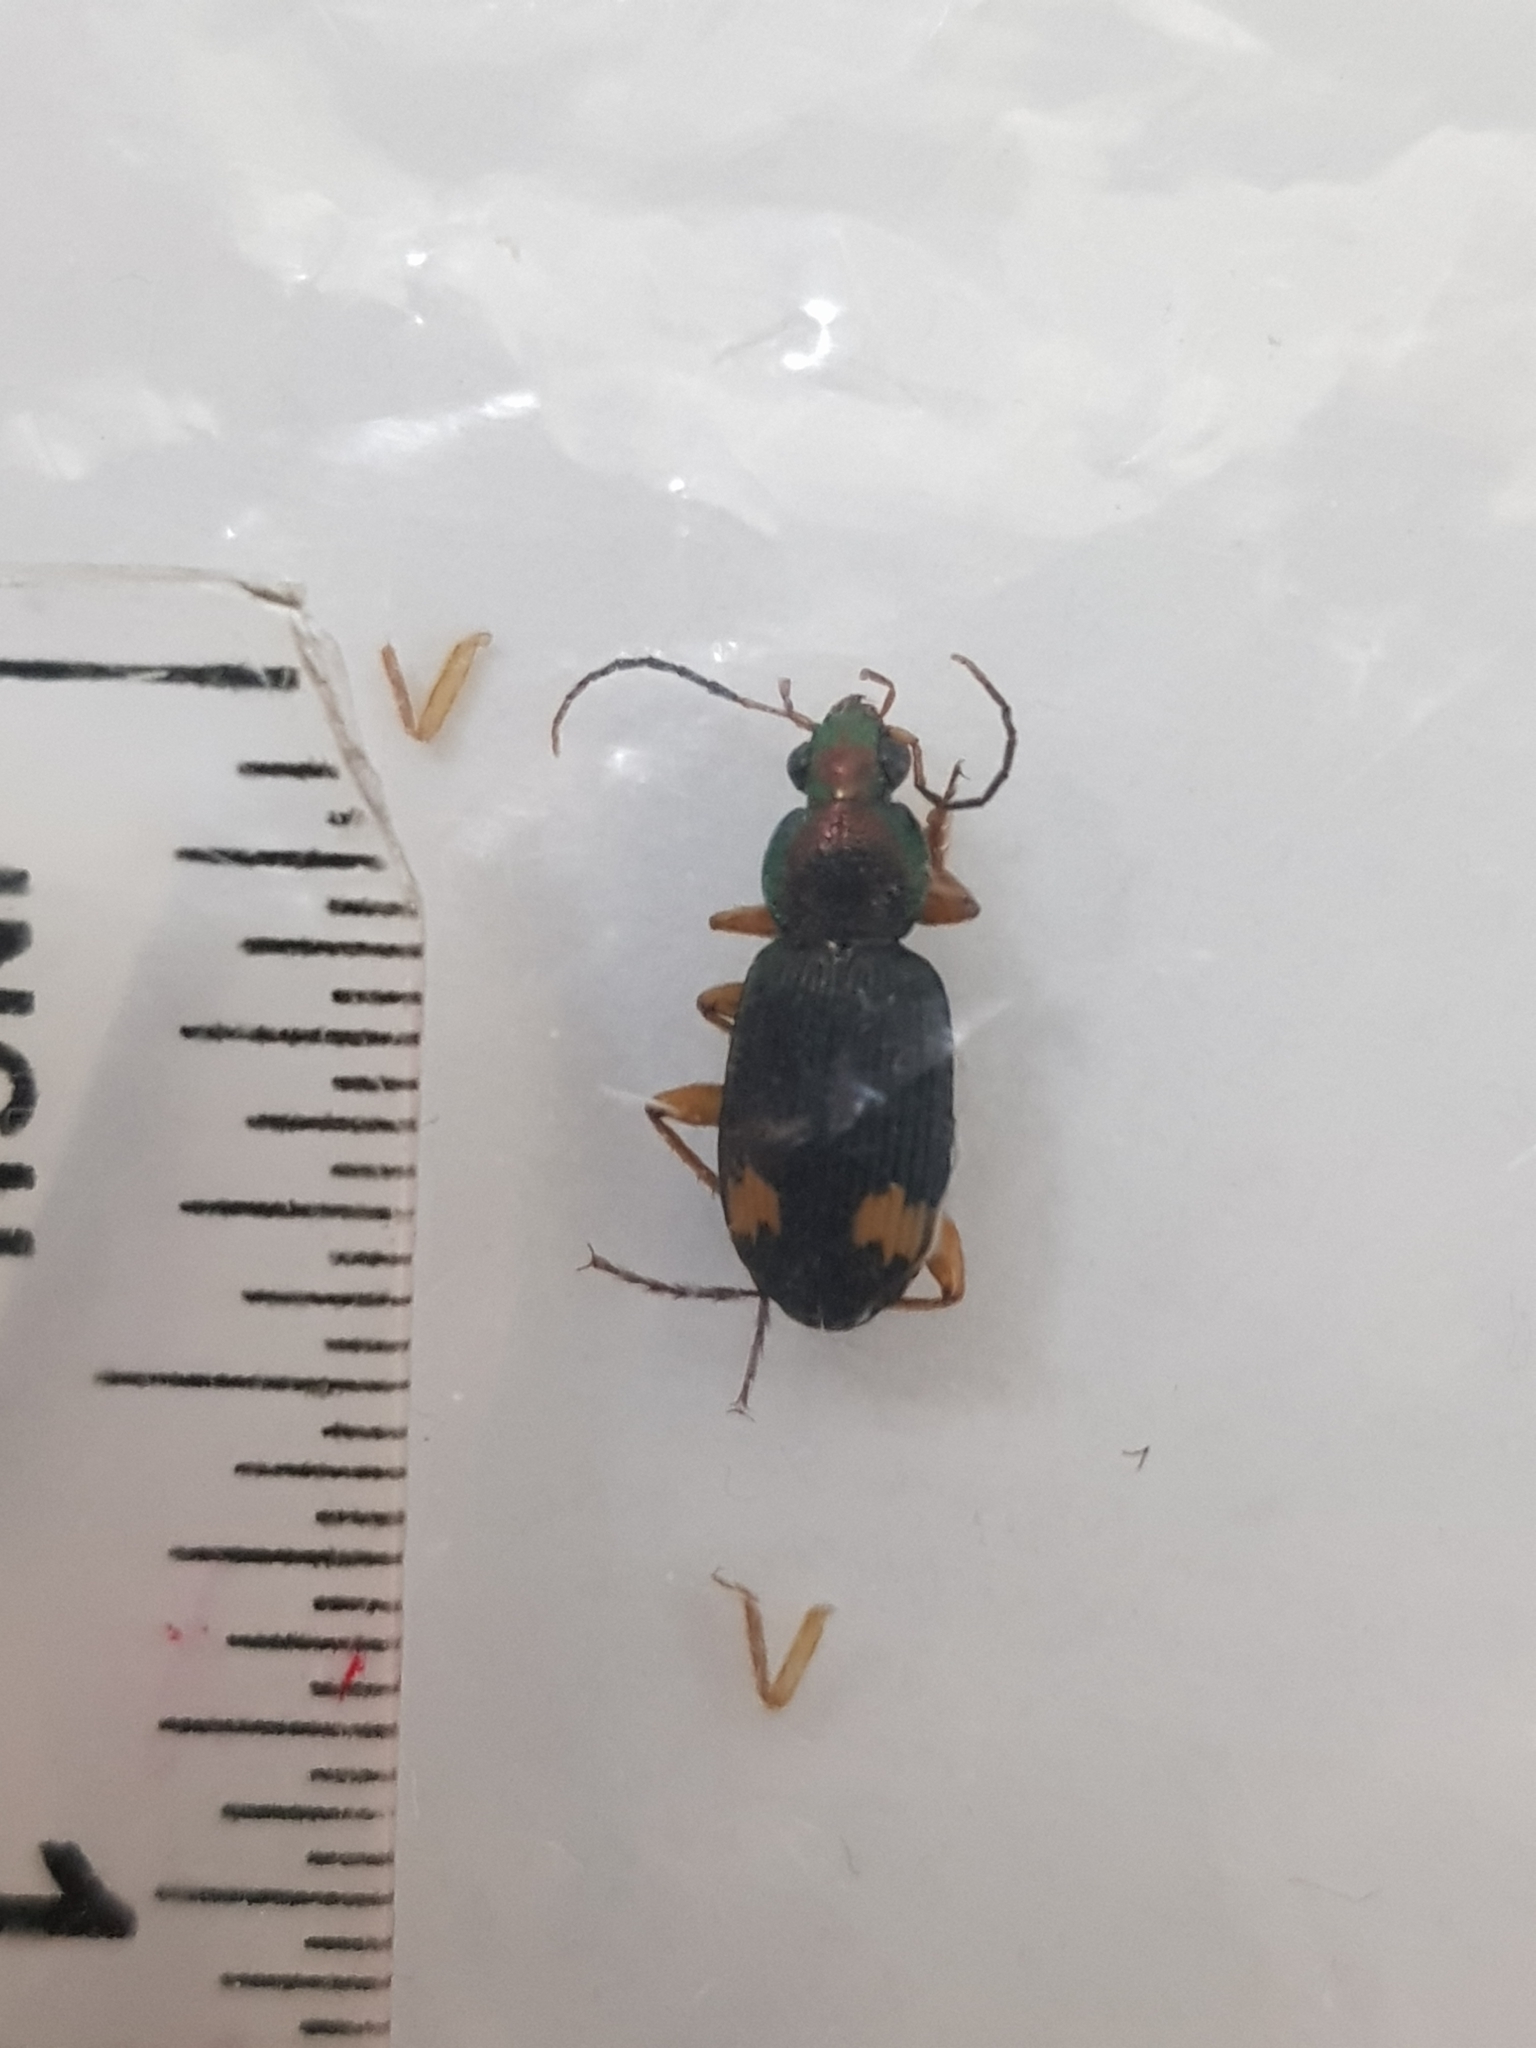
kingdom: Animalia
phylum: Arthropoda
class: Insecta
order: Coleoptera
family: Carabidae
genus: Chlaenius
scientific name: Chlaenius bioculatus
